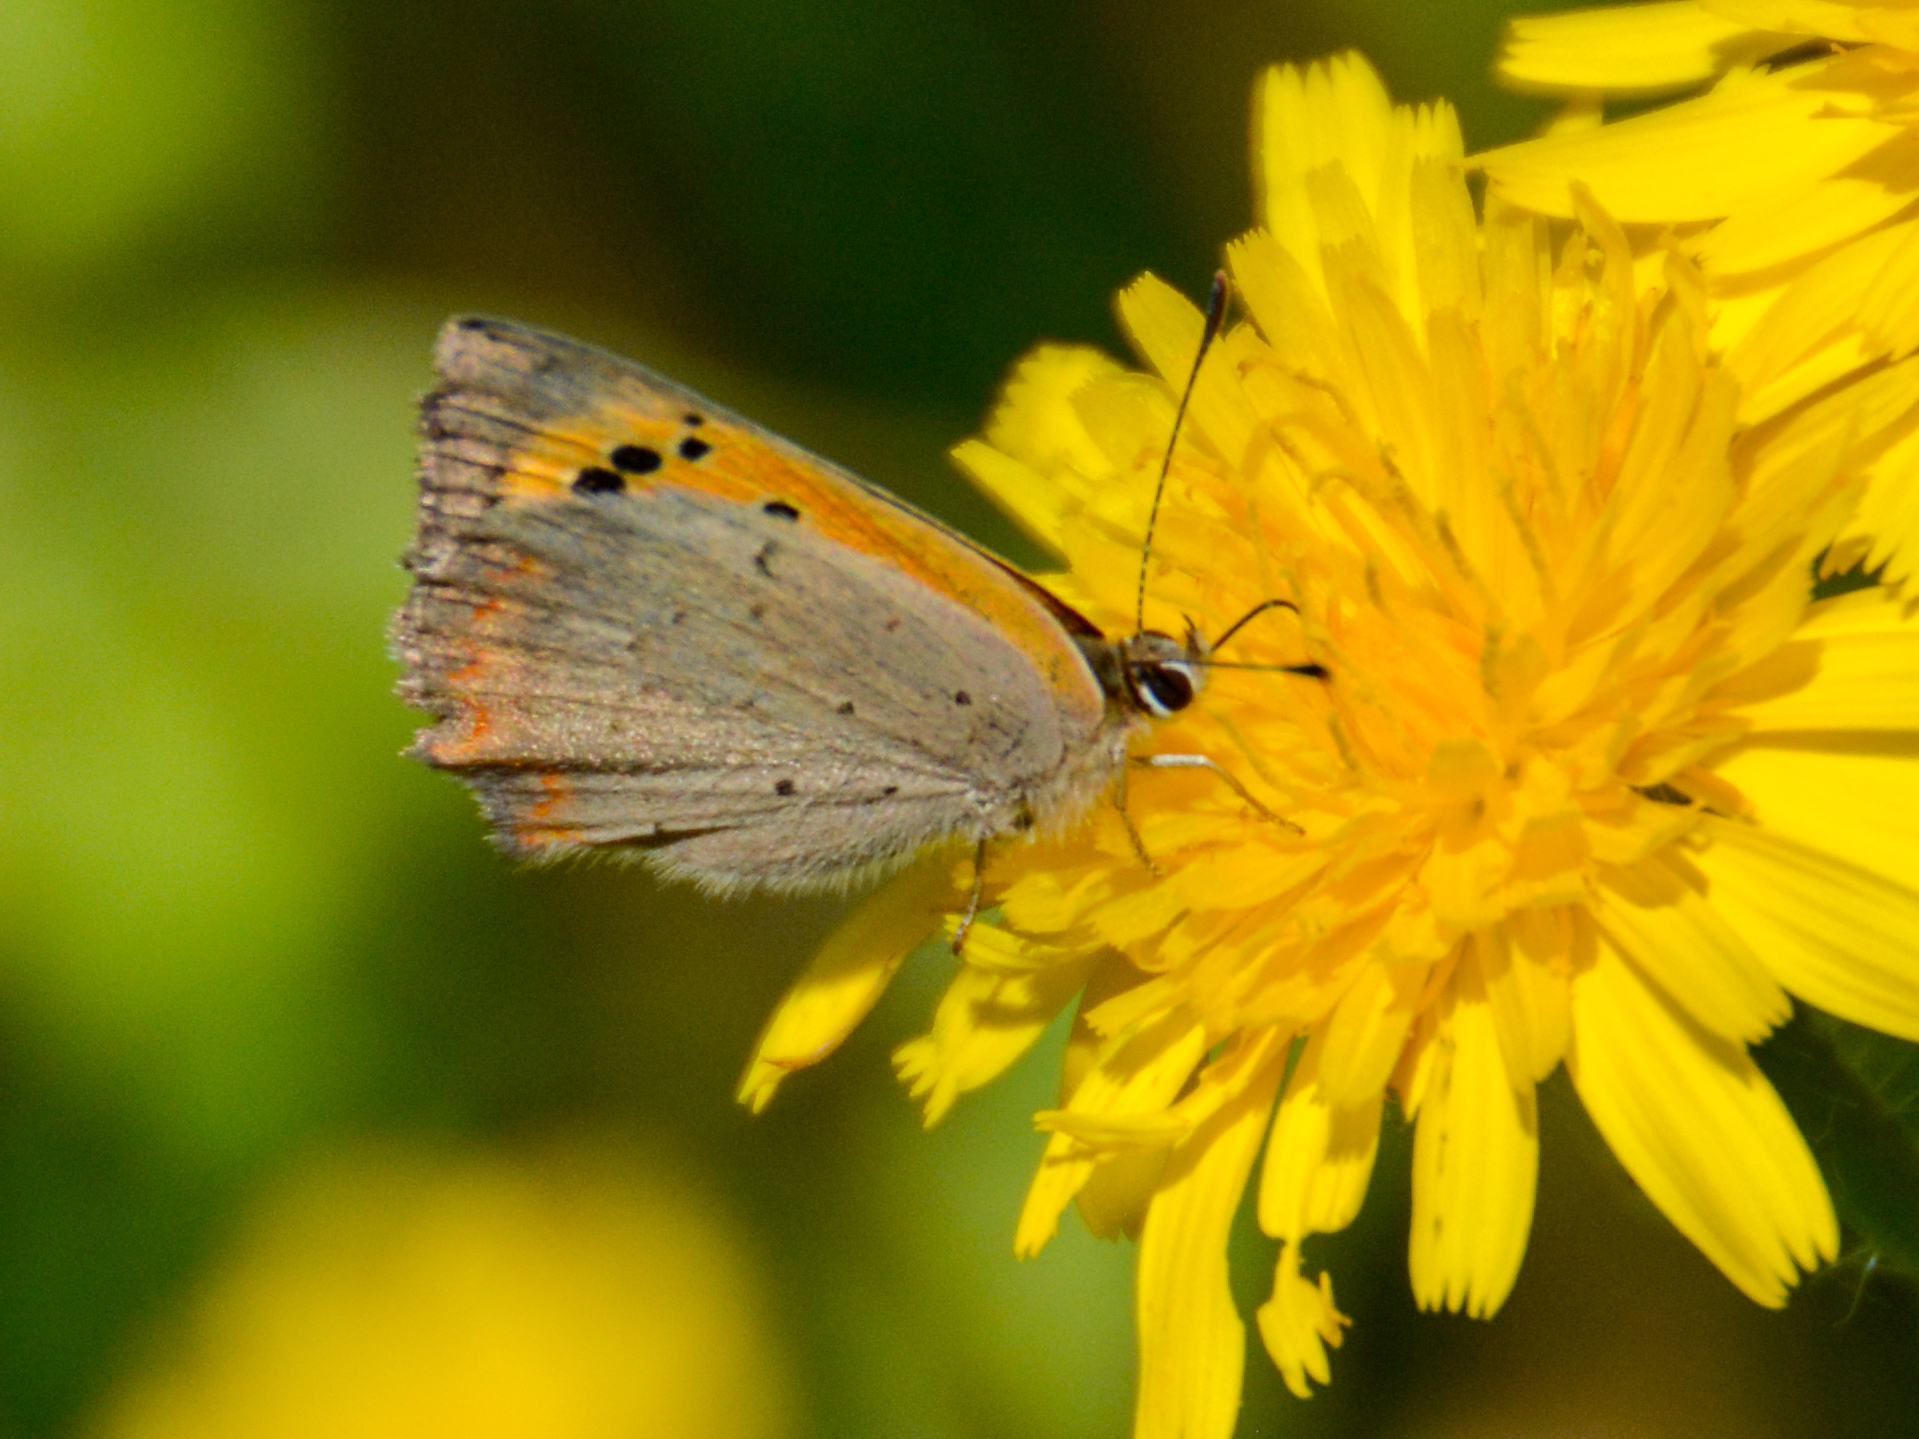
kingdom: Animalia
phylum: Arthropoda
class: Insecta
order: Lepidoptera
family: Lycaenidae
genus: Lycaena
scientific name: Lycaena phlaeas
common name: Small copper
